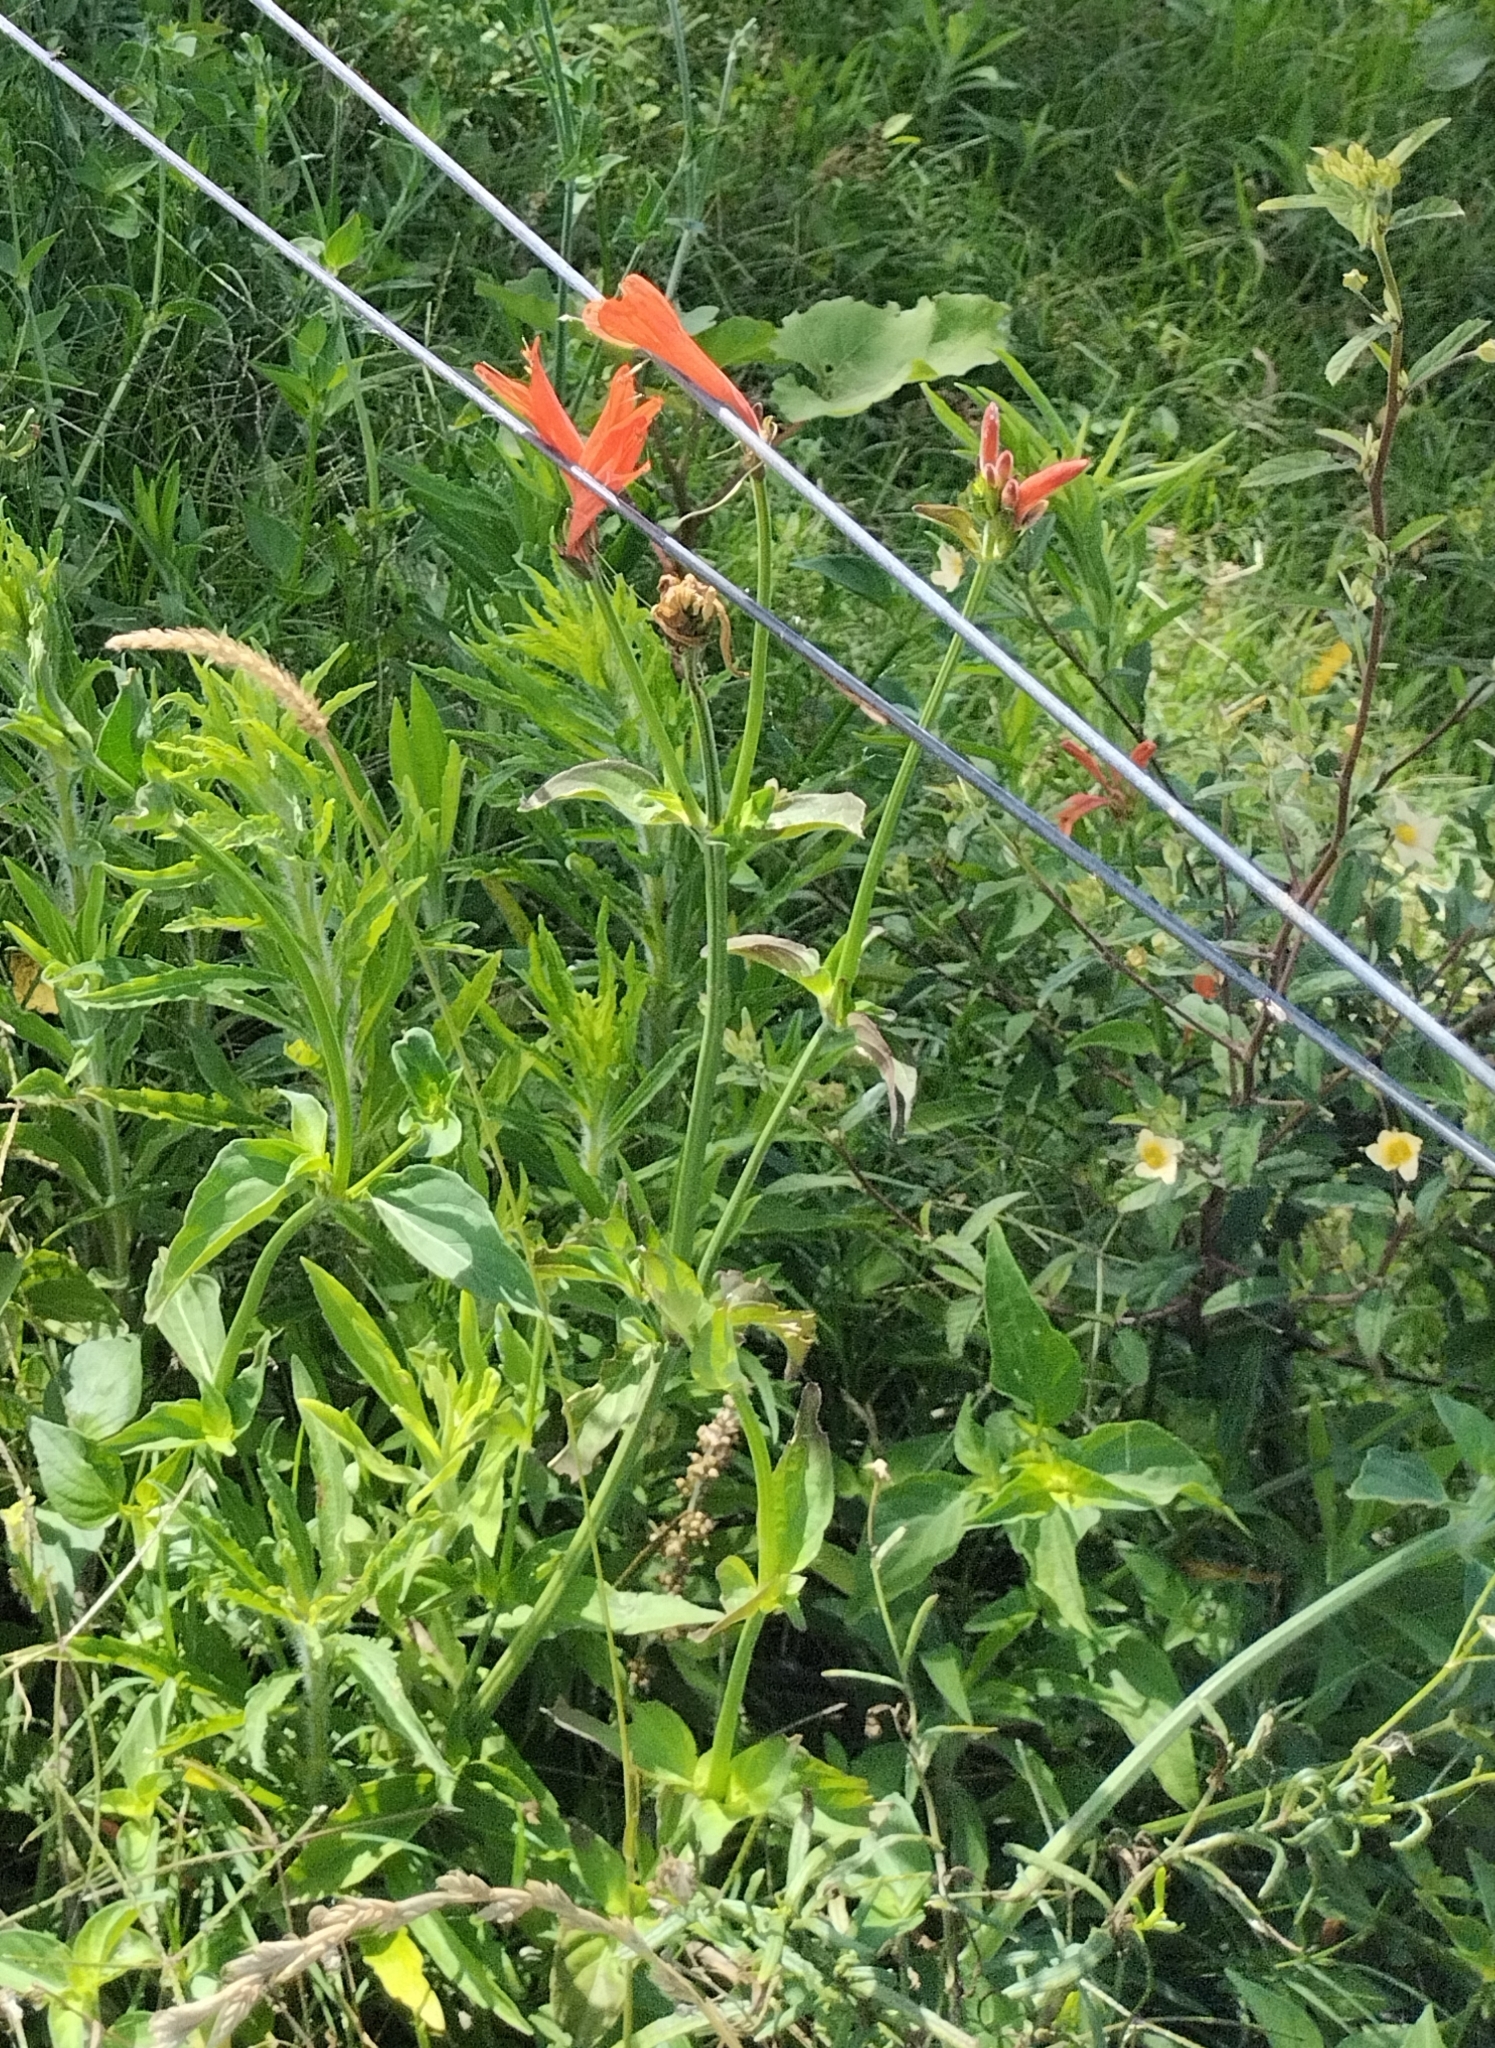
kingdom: Plantae
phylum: Tracheophyta
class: Magnoliopsida
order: Lamiales
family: Acanthaceae
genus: Dicliptera
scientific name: Dicliptera squarrosa
